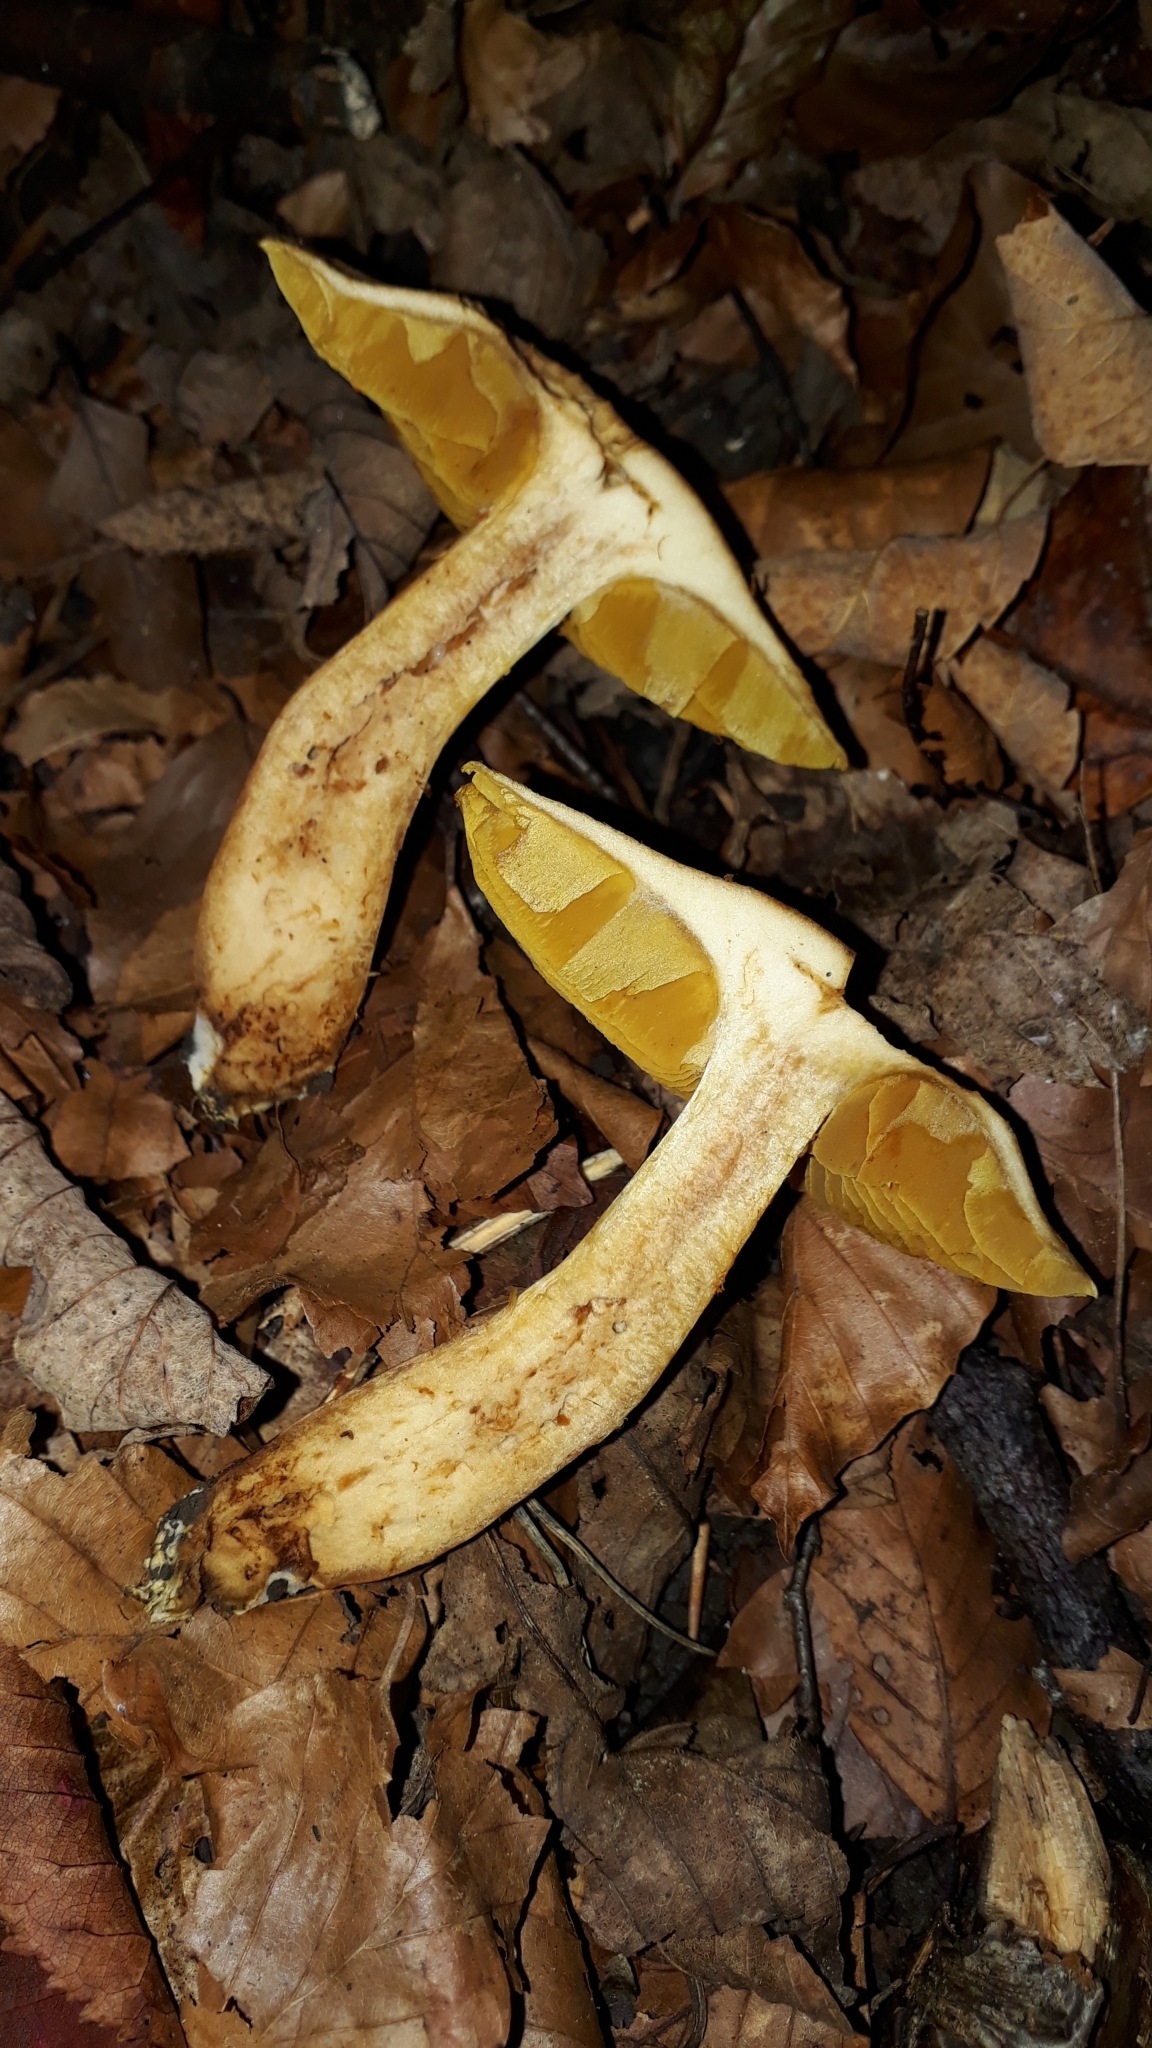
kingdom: Fungi
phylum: Basidiomycota
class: Agaricomycetes
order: Agaricales
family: Cortinariaceae
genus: Cortinarius
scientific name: Cortinarius cotoneus
